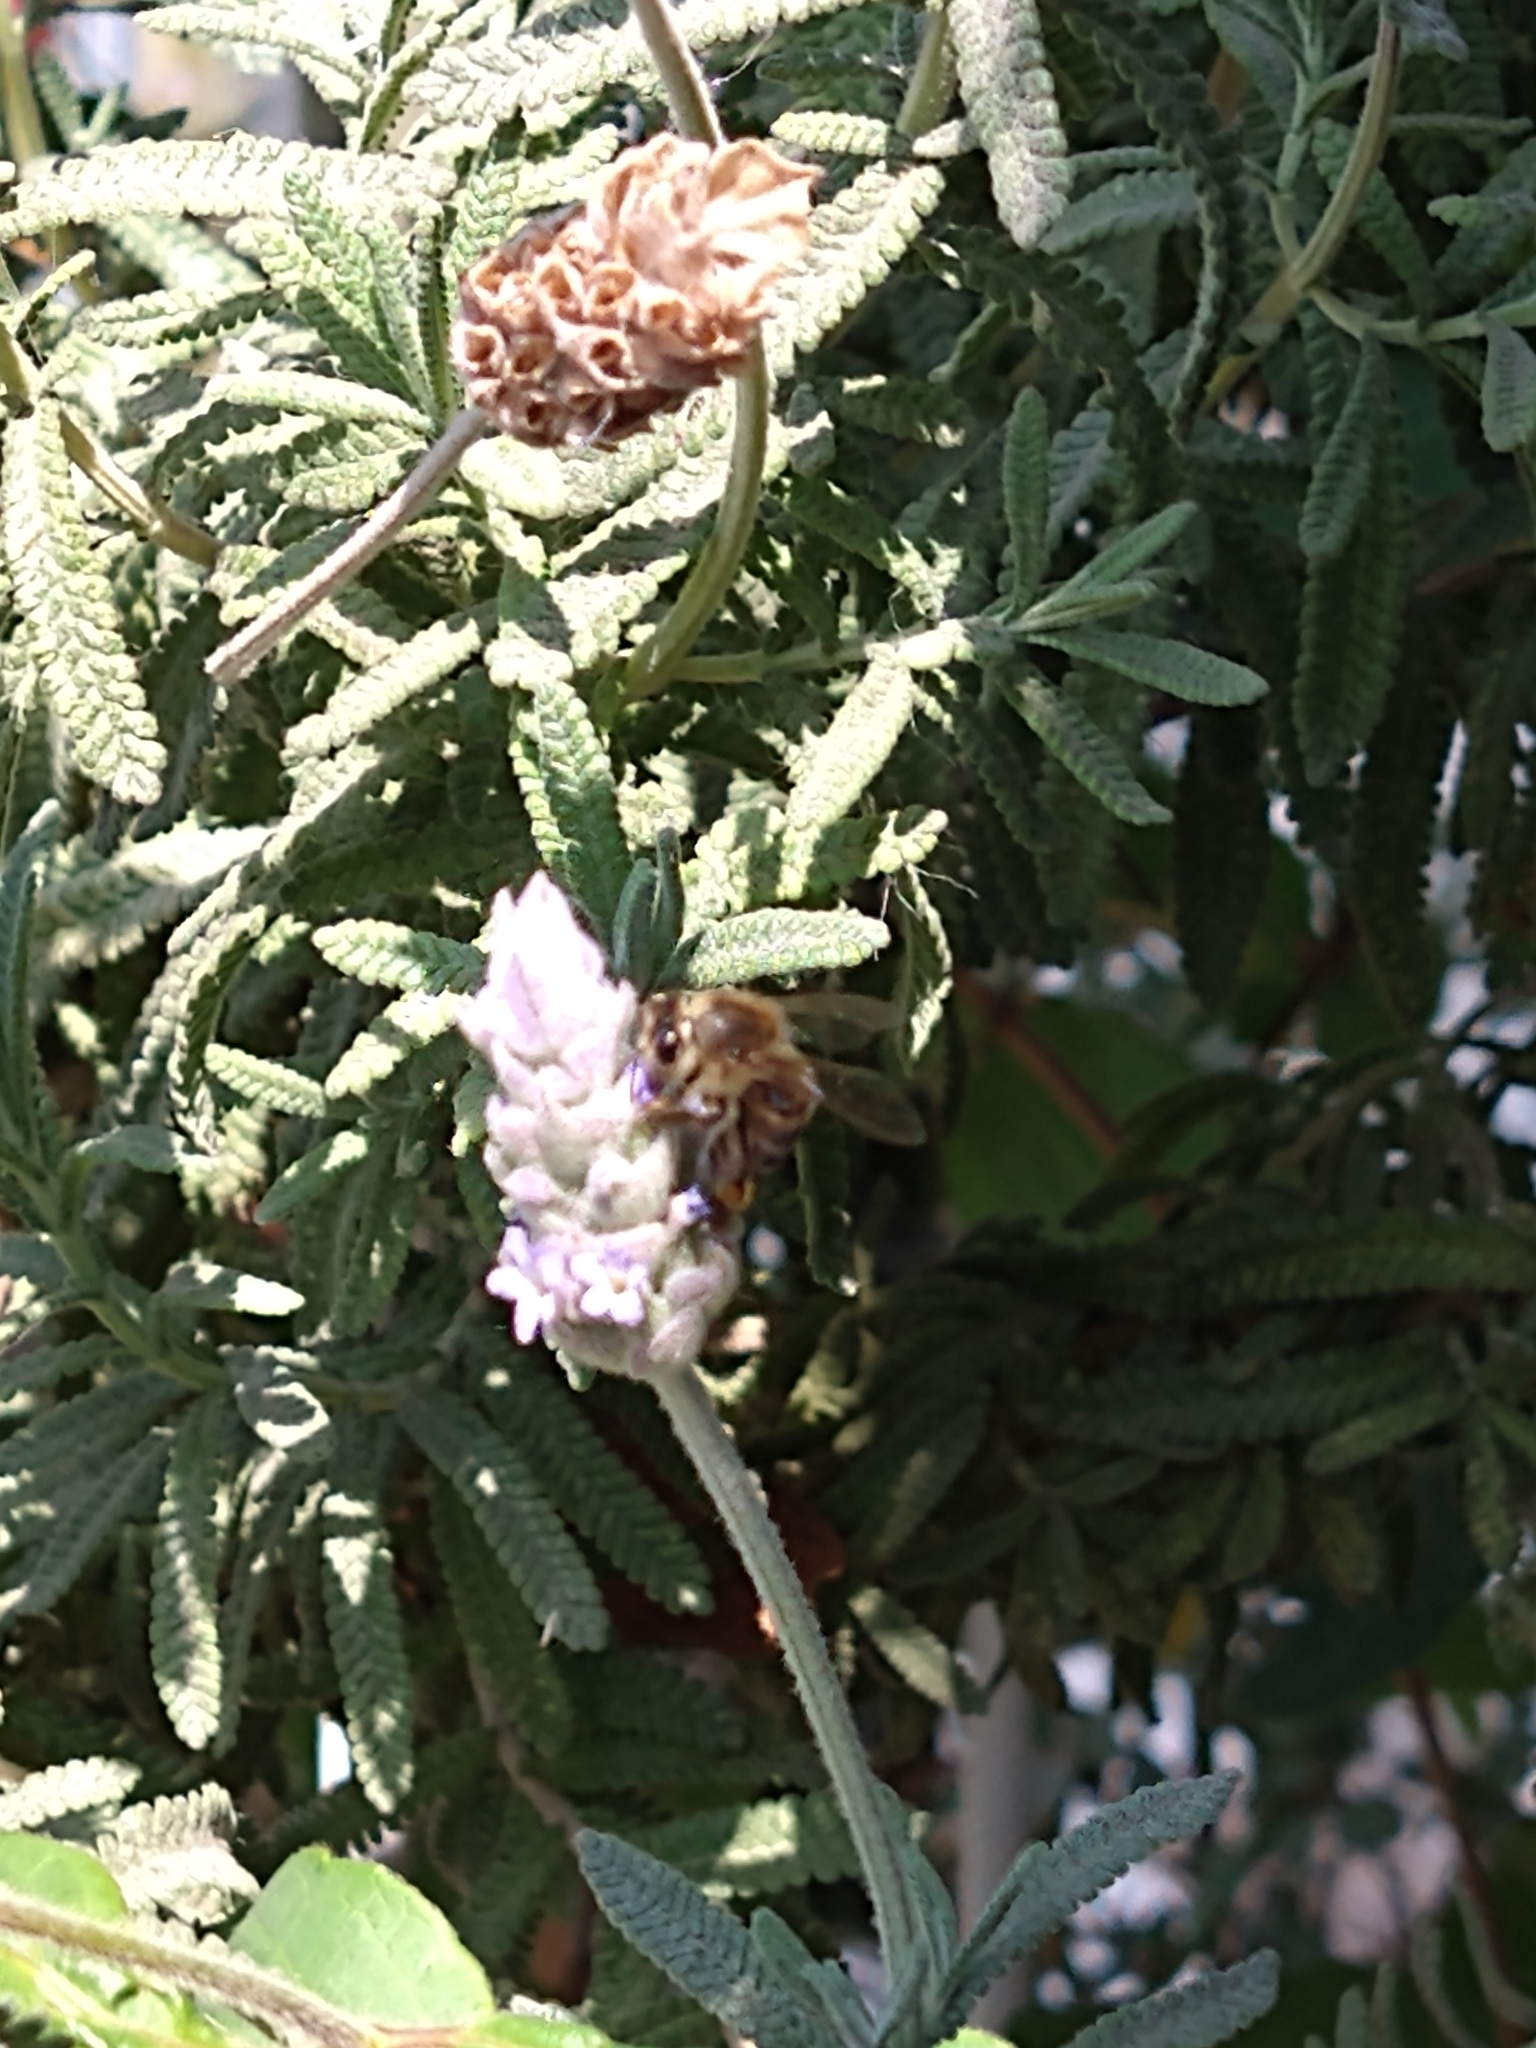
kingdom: Animalia
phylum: Arthropoda
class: Insecta
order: Hymenoptera
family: Apidae
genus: Apis
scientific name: Apis mellifera
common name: Honey bee
